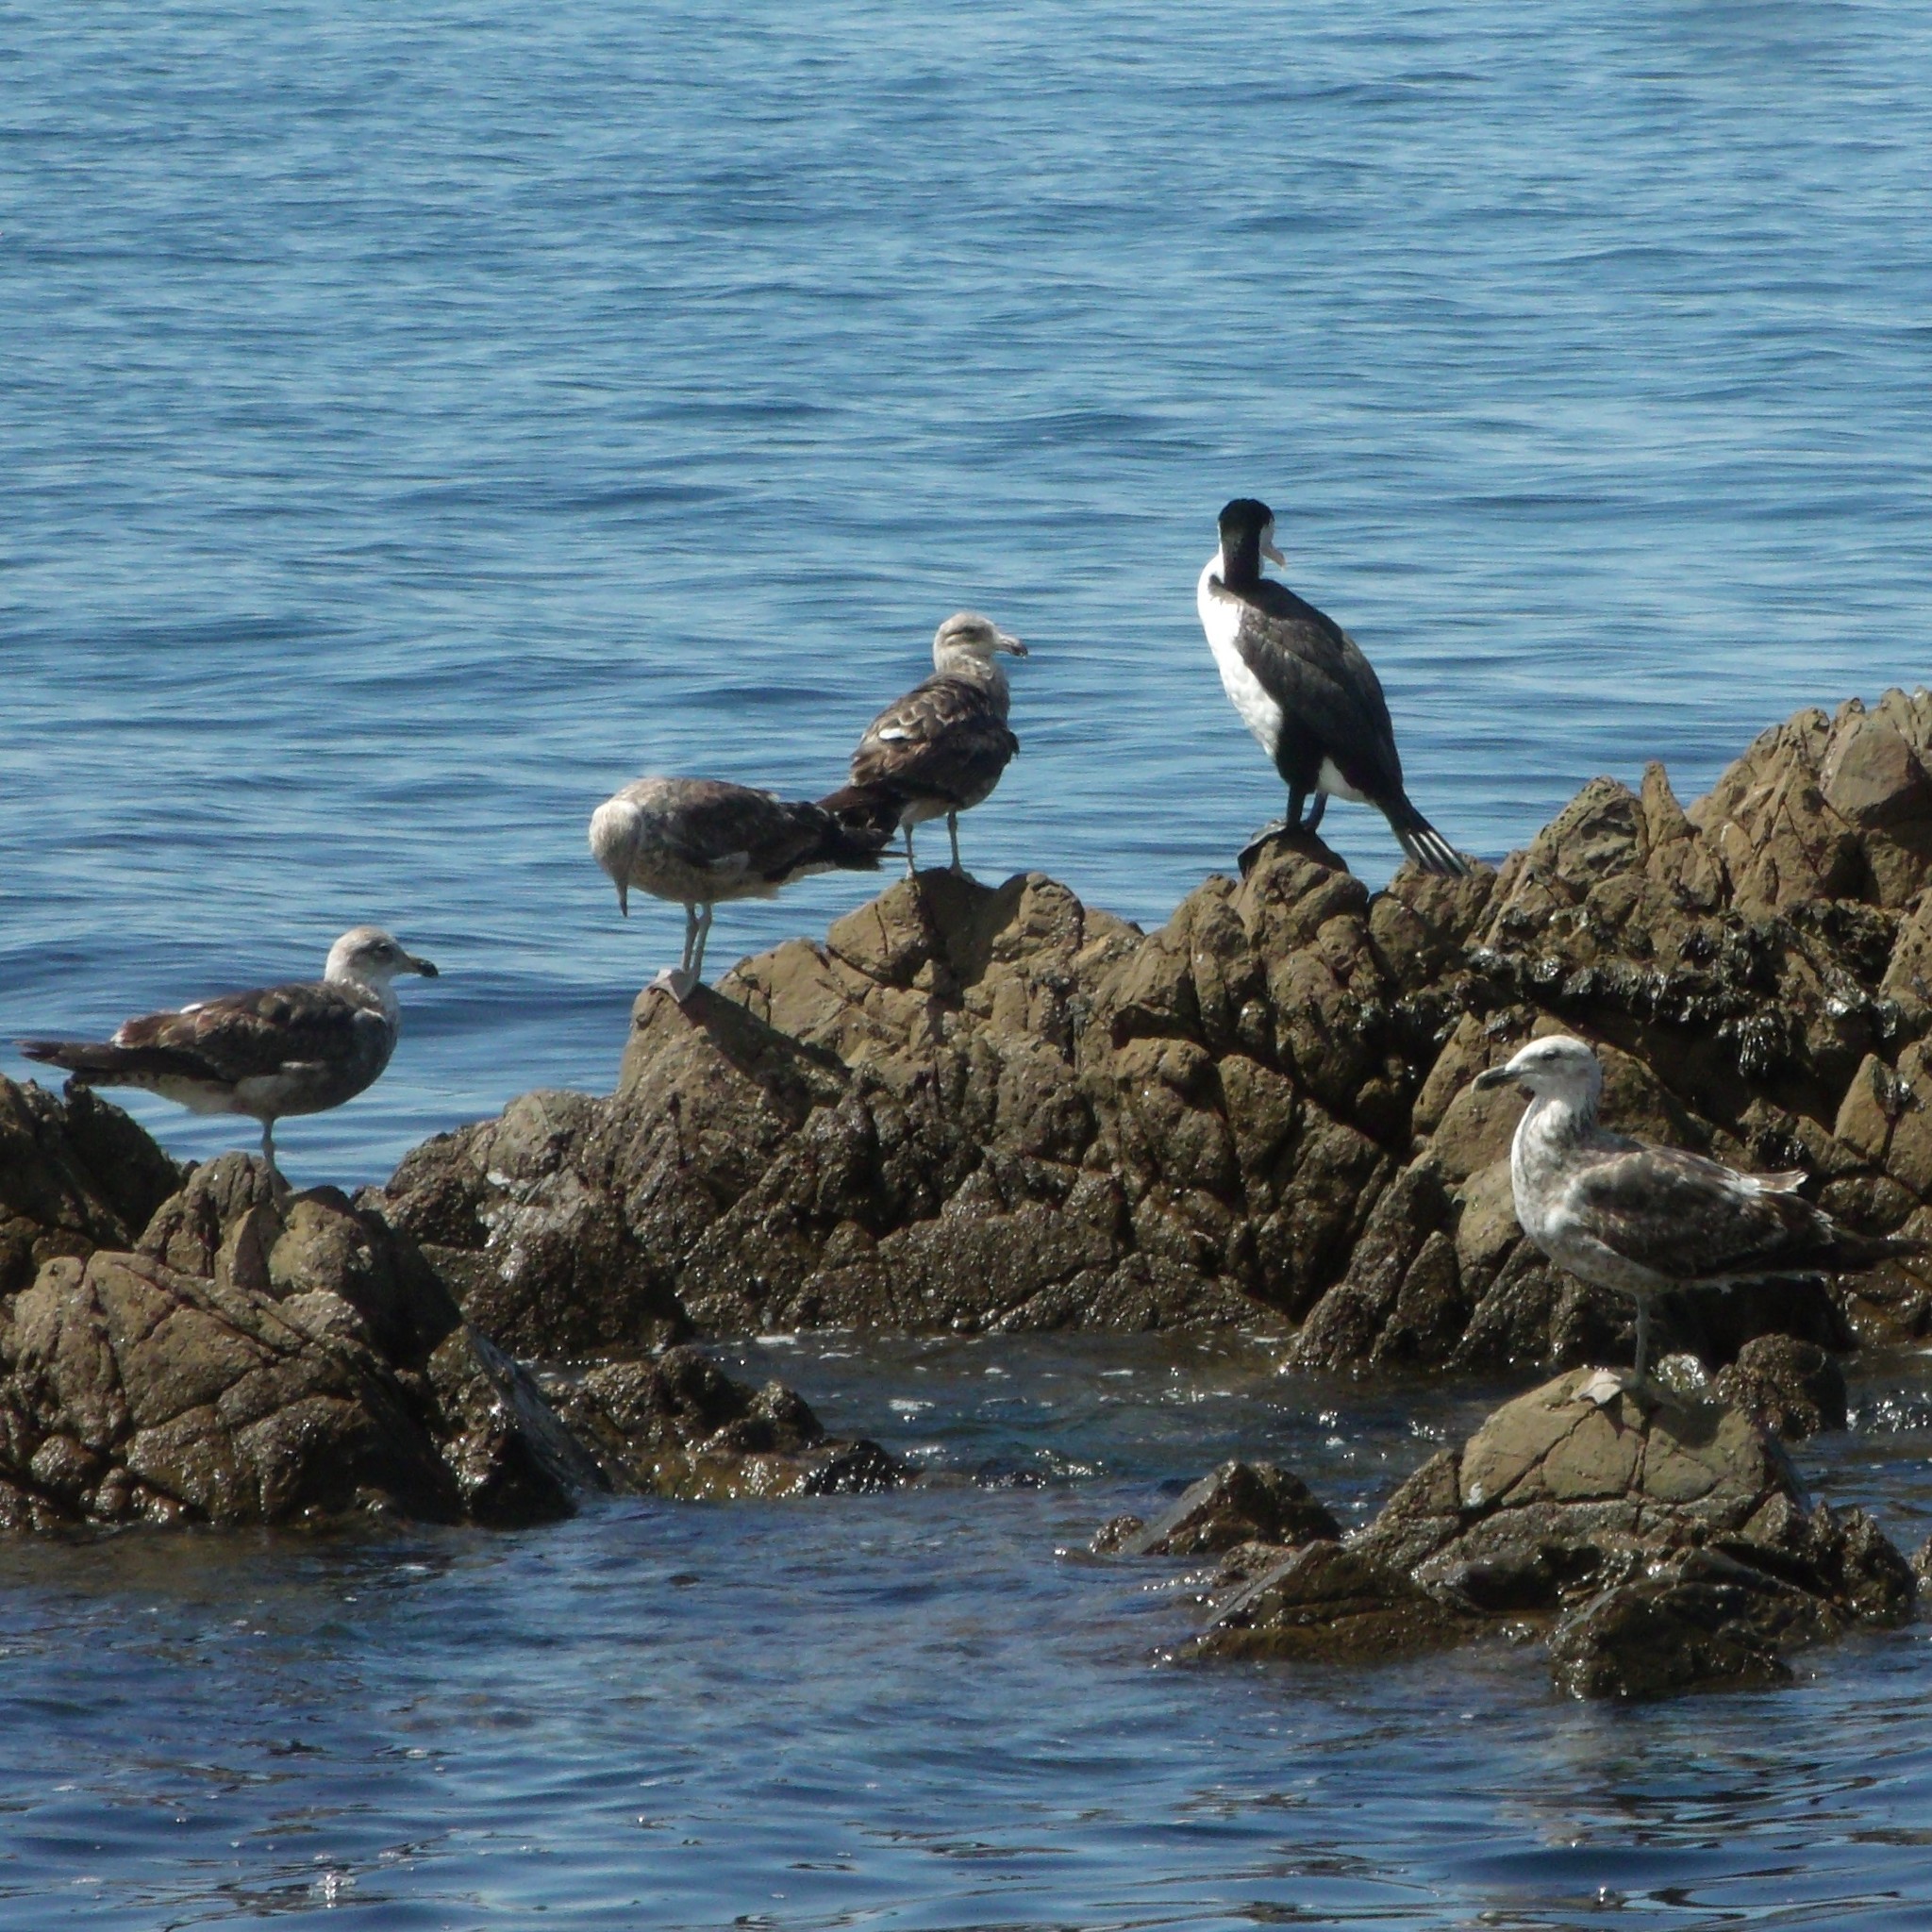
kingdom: Animalia
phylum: Chordata
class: Aves
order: Charadriiformes
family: Laridae
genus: Larus
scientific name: Larus dominicanus
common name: Kelp gull
